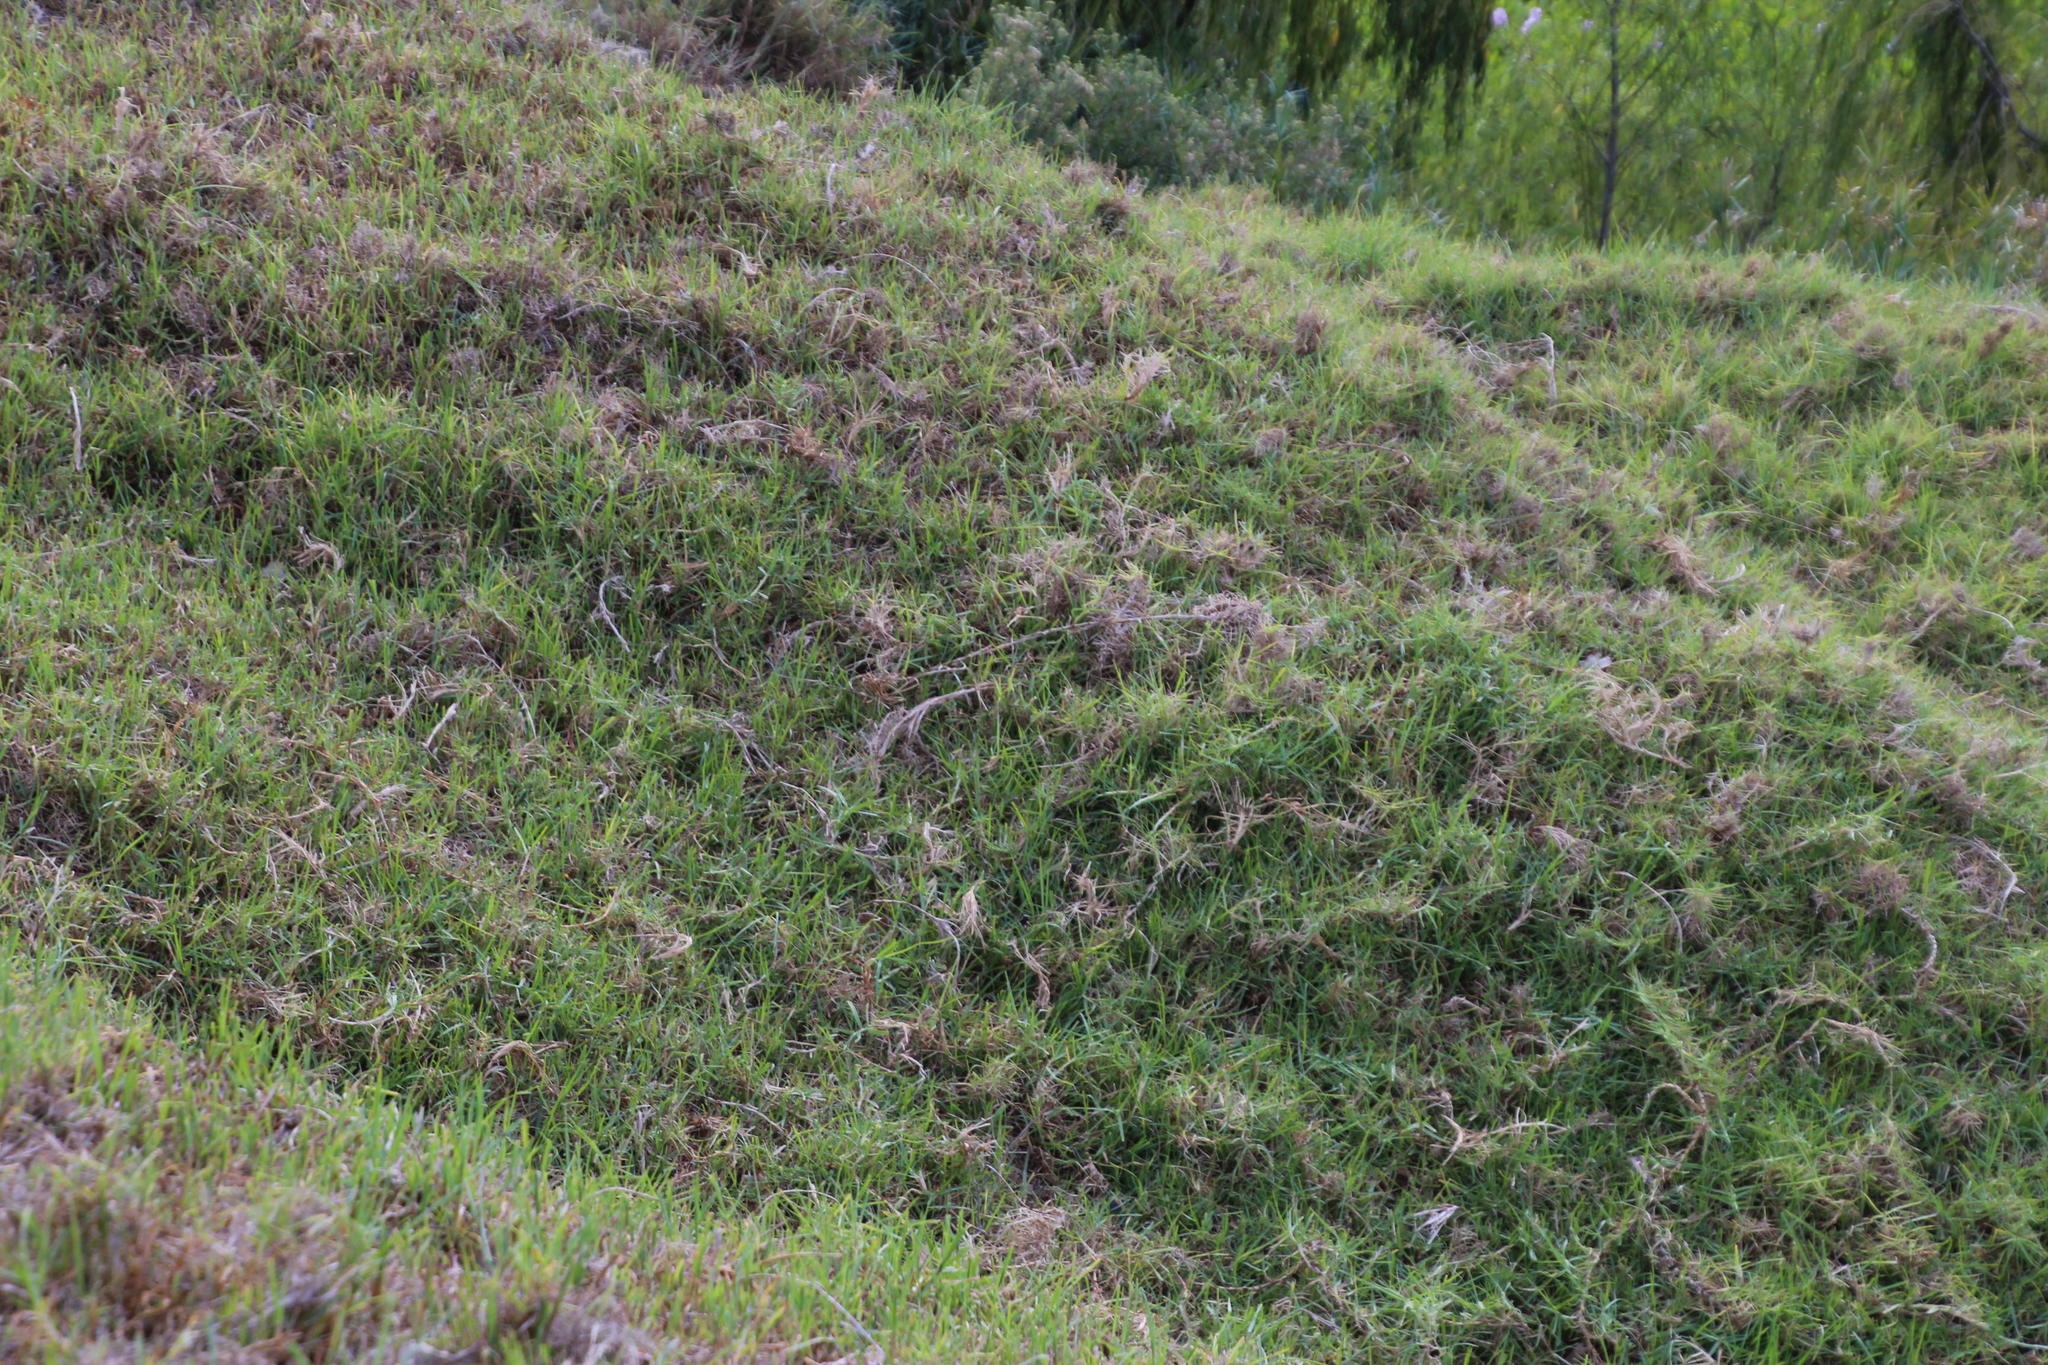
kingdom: Plantae
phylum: Tracheophyta
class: Liliopsida
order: Poales
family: Poaceae
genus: Cenchrus
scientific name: Cenchrus clandestinus
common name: Kikuyugrass
